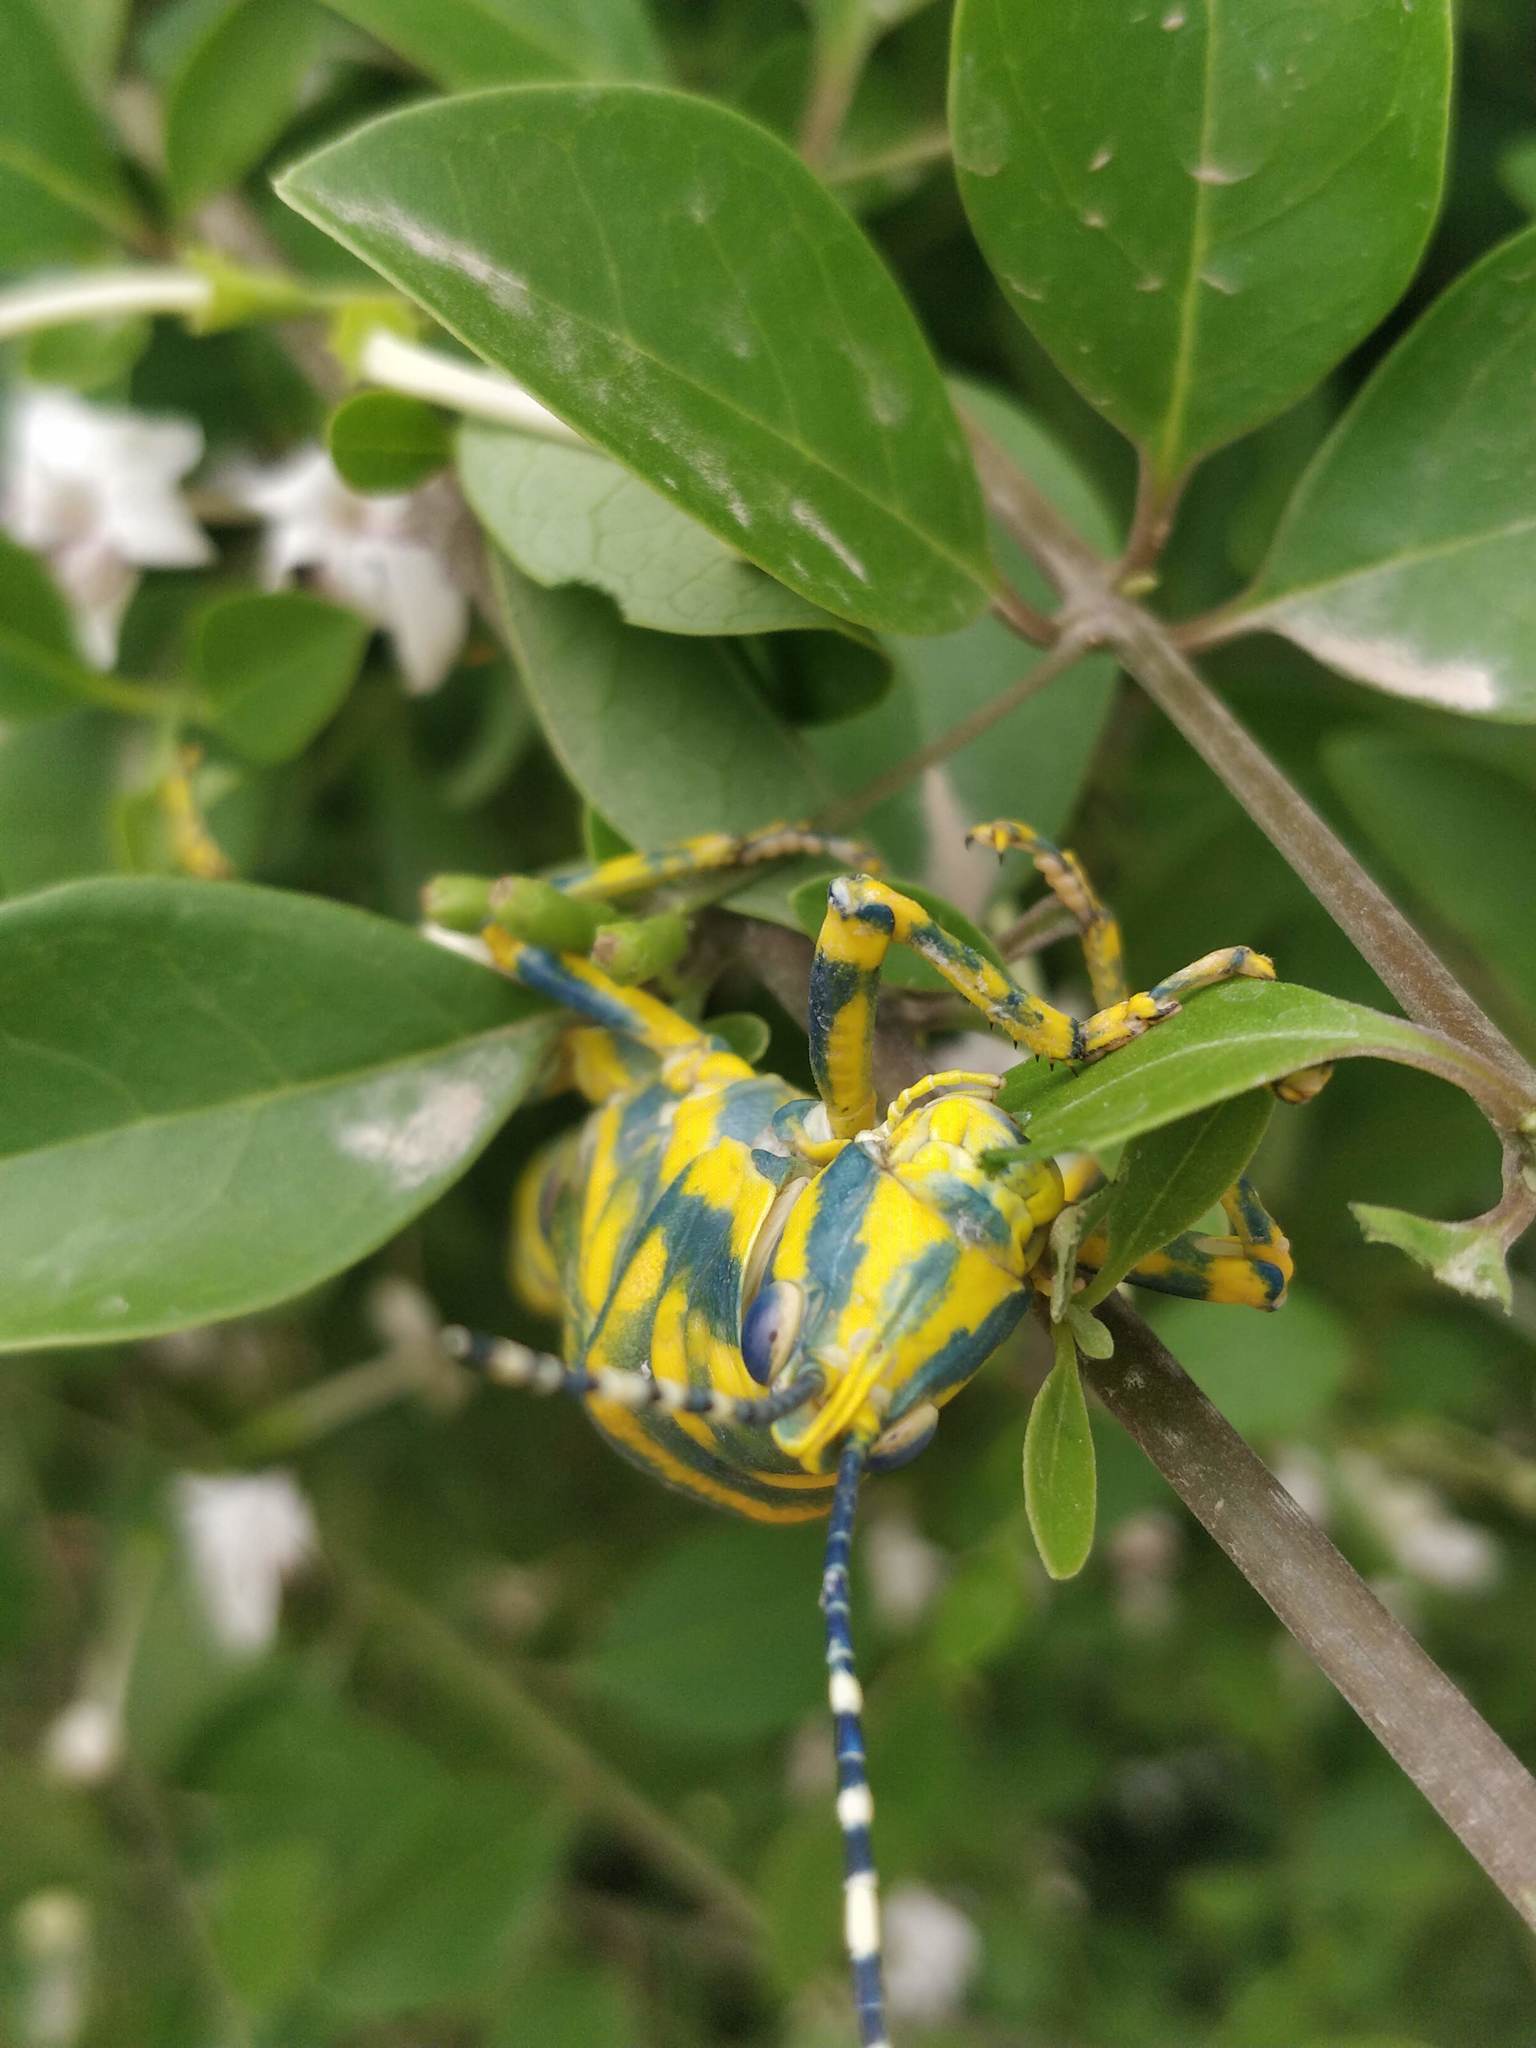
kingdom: Animalia
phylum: Arthropoda
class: Insecta
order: Orthoptera
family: Pyrgomorphidae
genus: Poekilocerus
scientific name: Poekilocerus pictus
